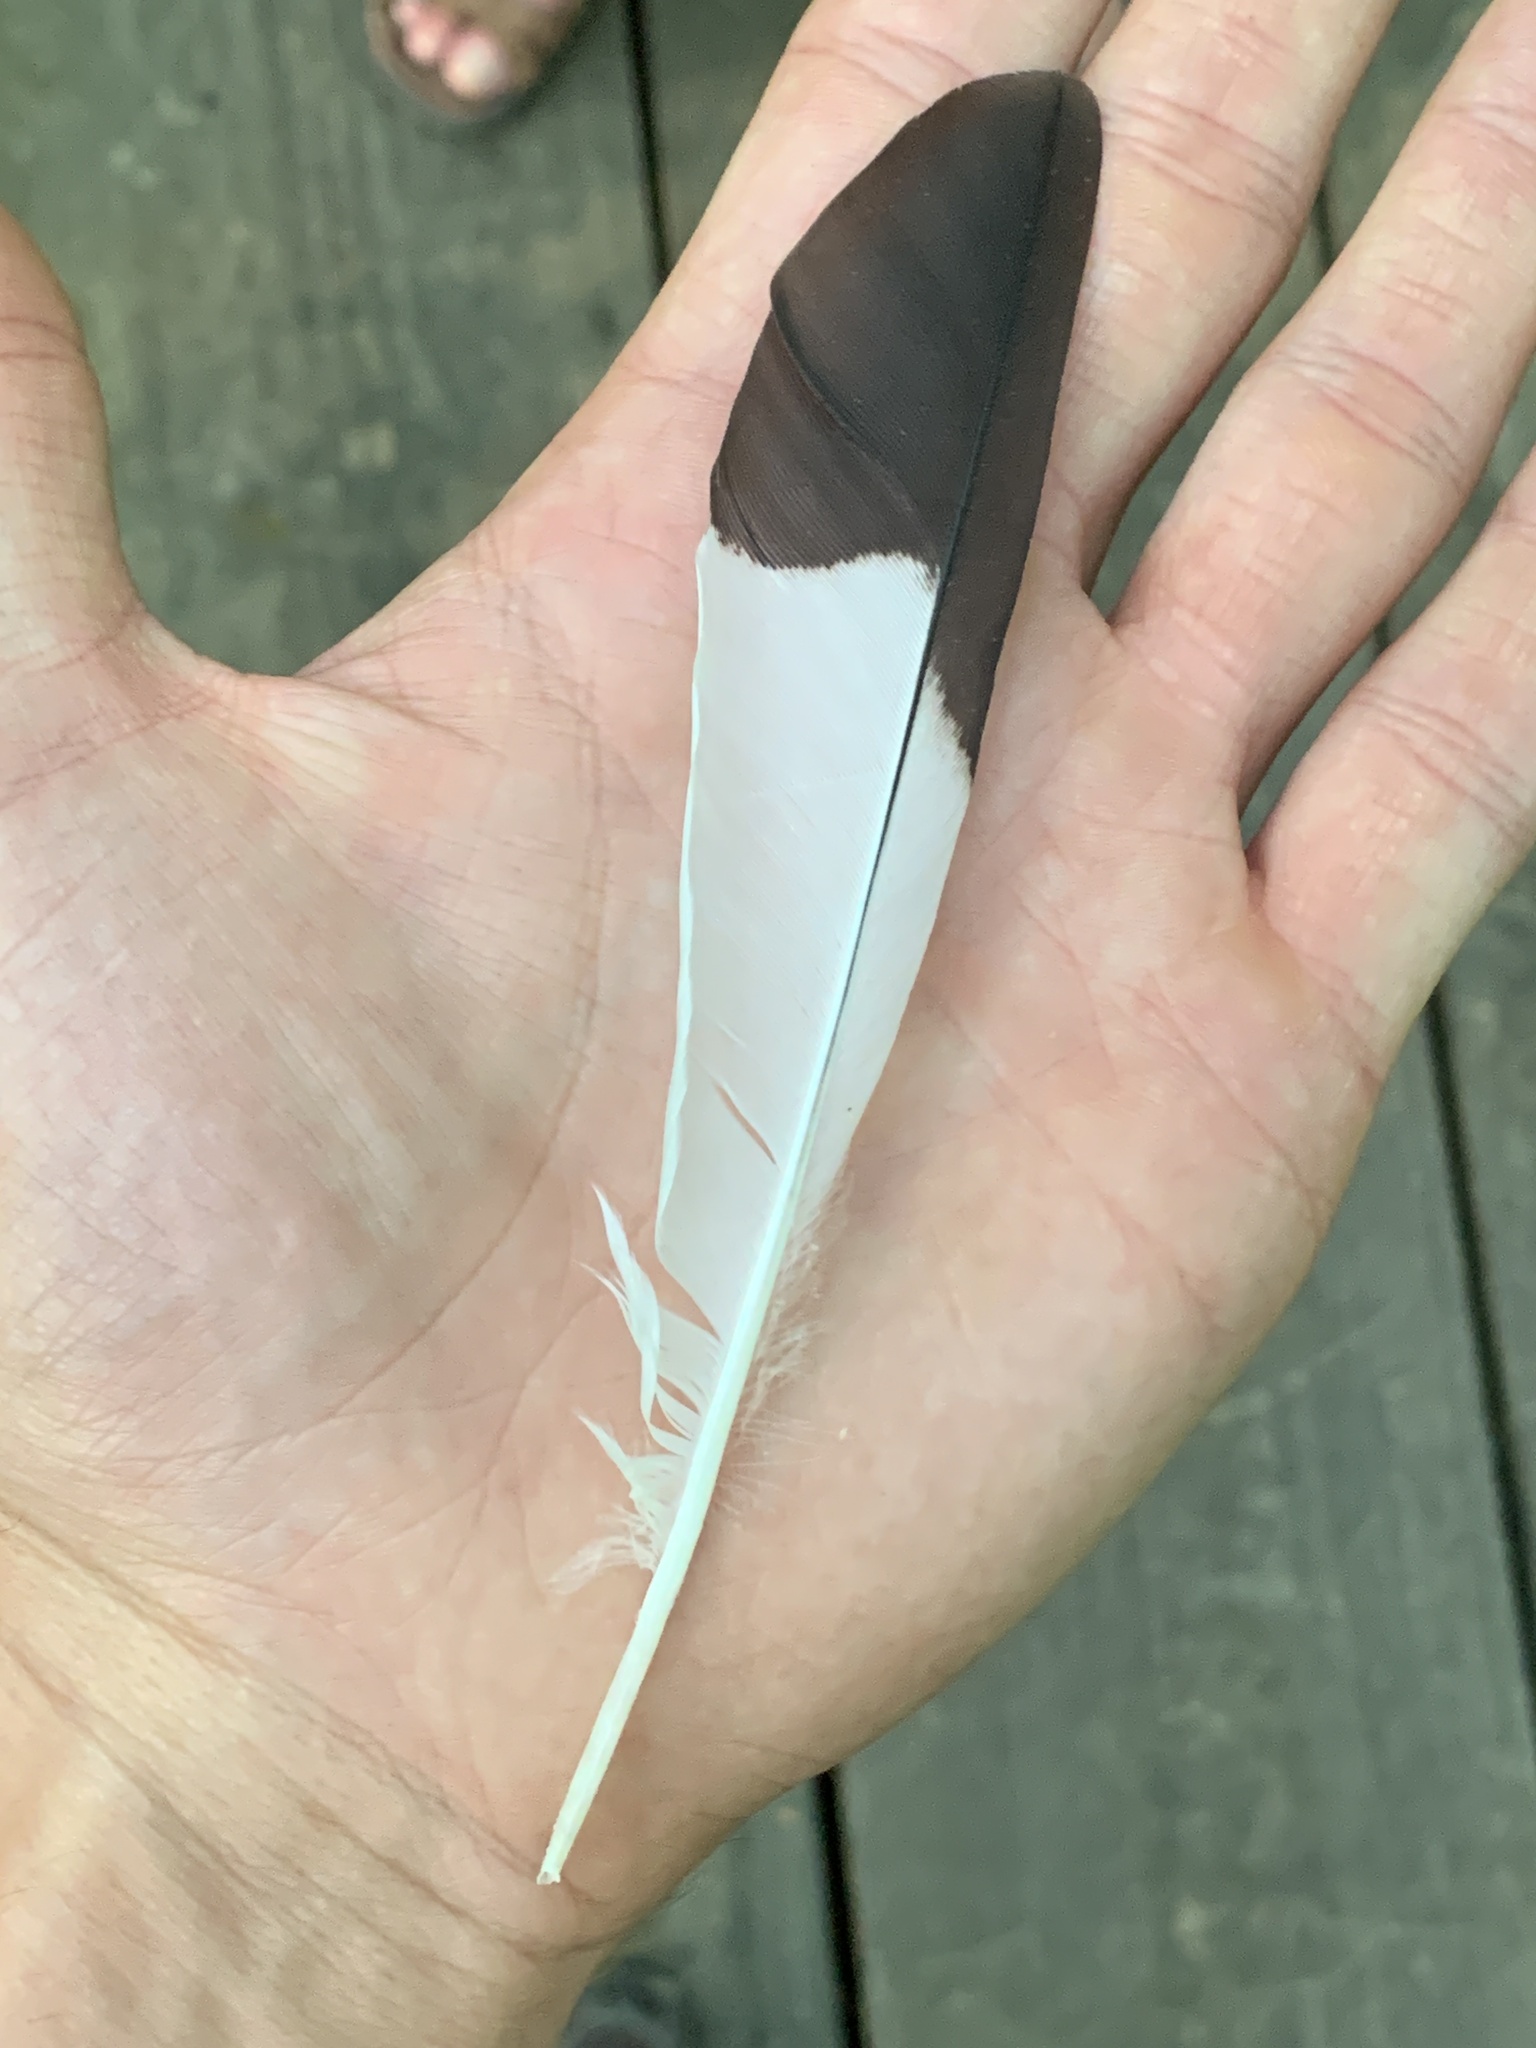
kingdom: Animalia
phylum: Chordata
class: Aves
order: Piciformes
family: Picidae
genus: Dryocopus
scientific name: Dryocopus pileatus
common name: Pileated woodpecker
